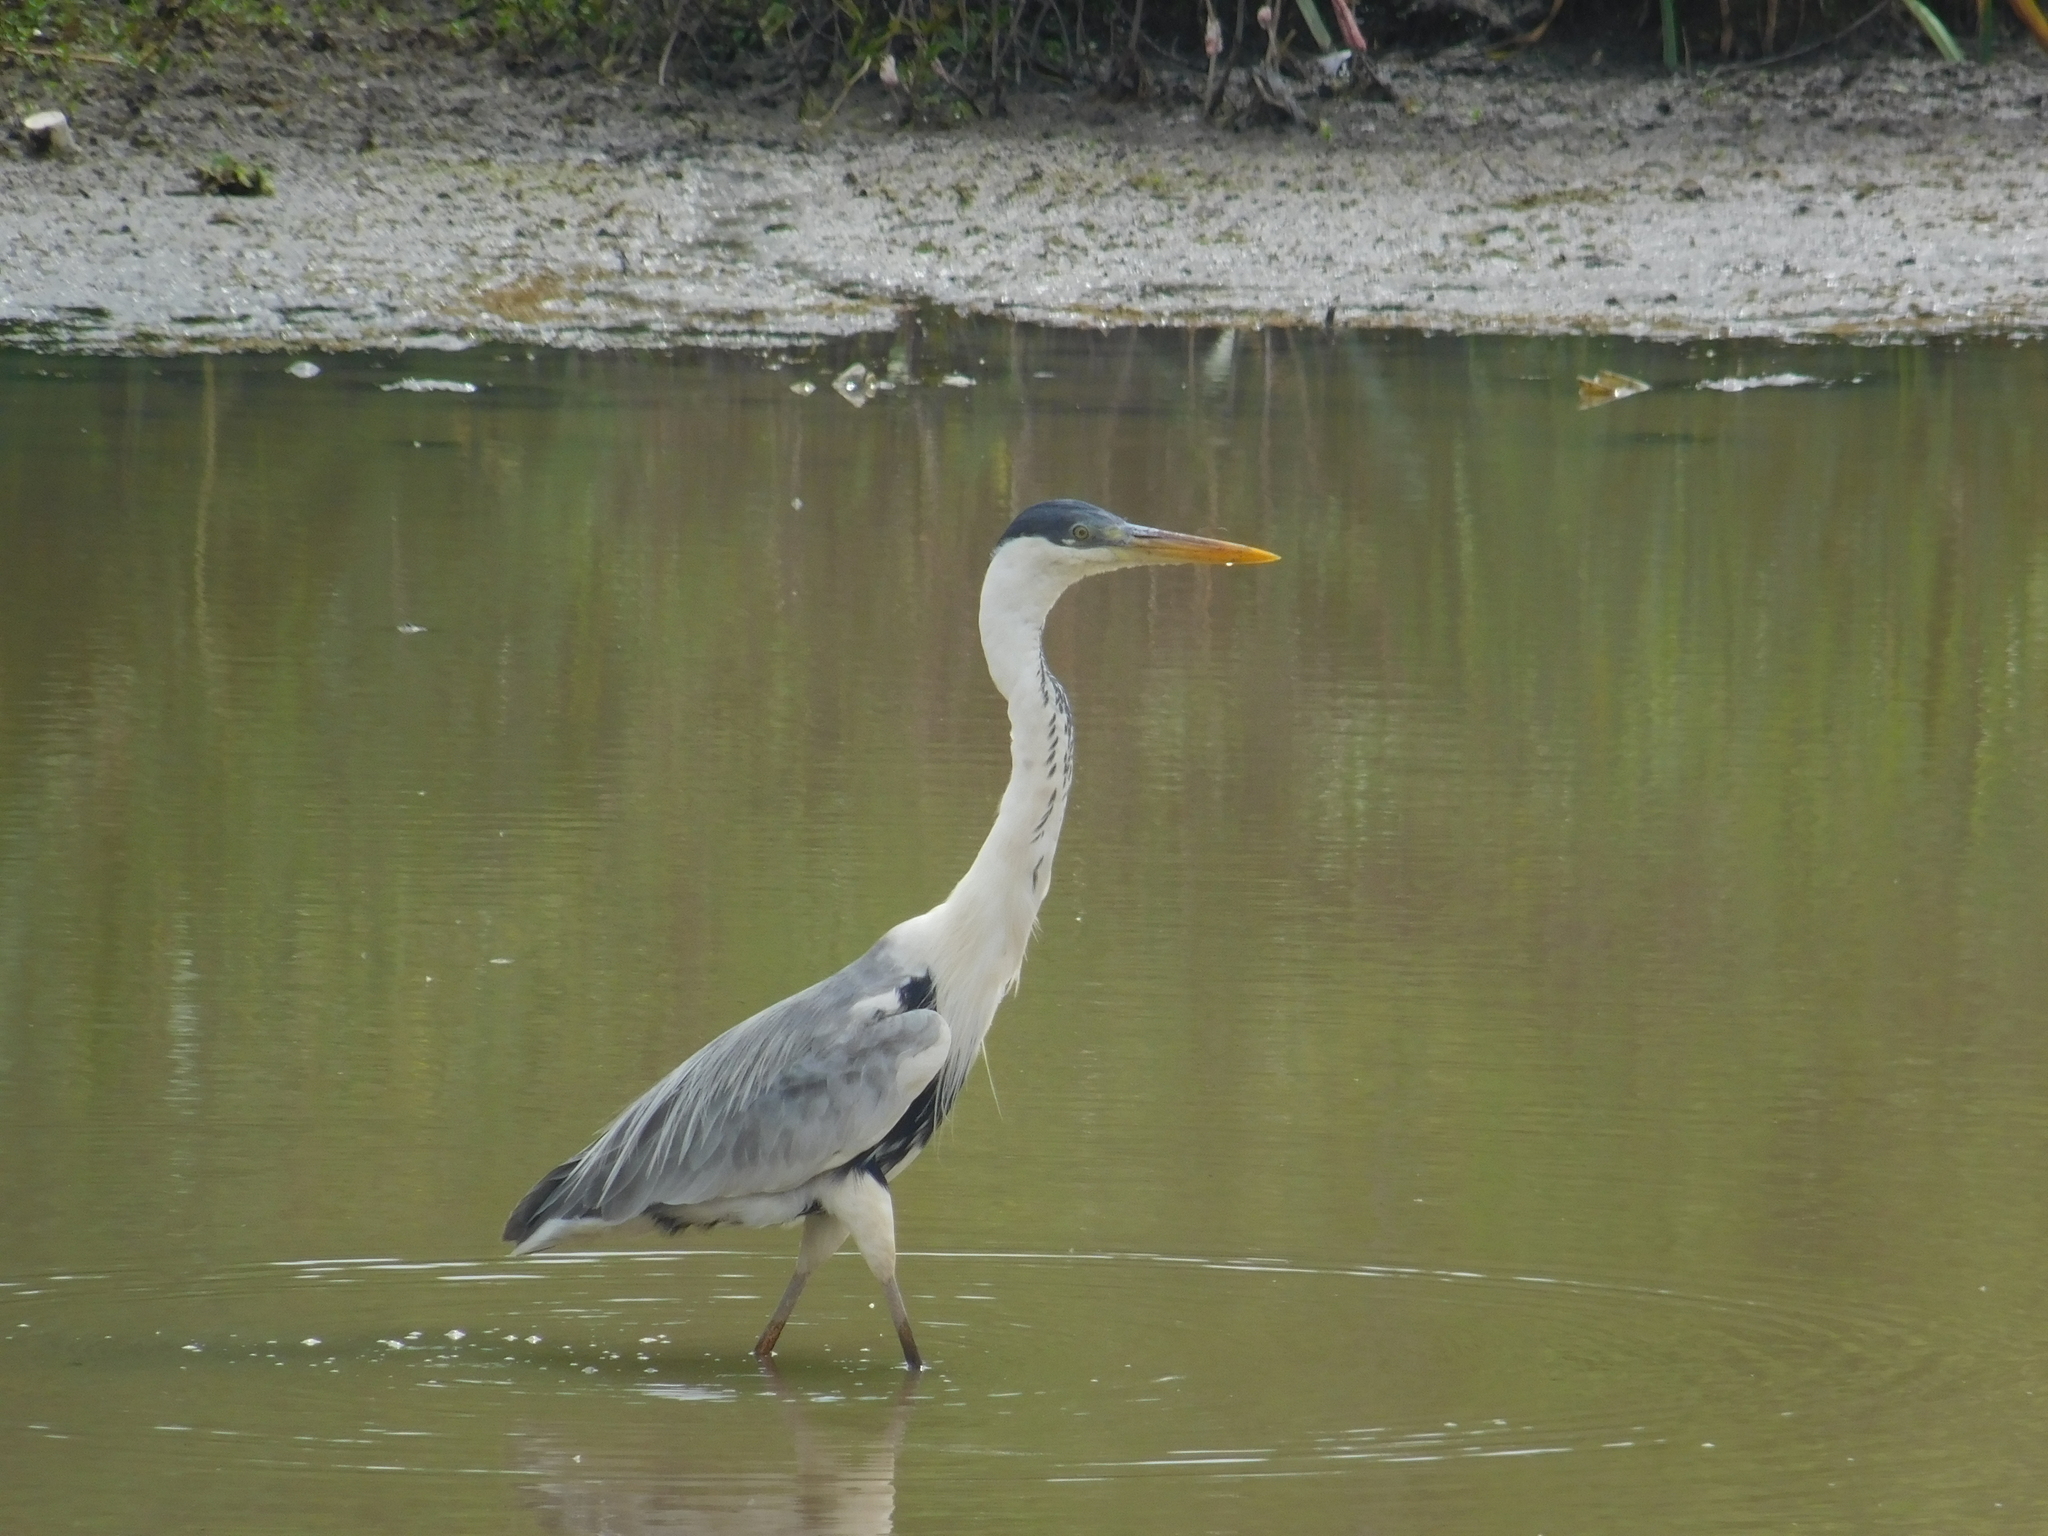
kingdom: Animalia
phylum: Chordata
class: Aves
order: Pelecaniformes
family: Ardeidae
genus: Ardea
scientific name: Ardea cocoi
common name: Cocoi heron
